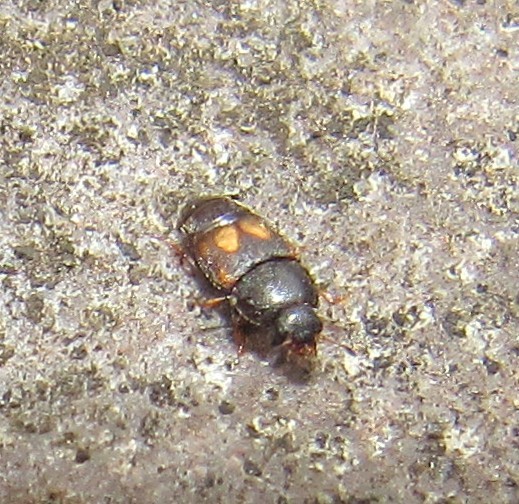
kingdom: Animalia
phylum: Arthropoda
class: Insecta
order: Coleoptera
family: Nitidulidae
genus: Carpophilus
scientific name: Carpophilus hemipterus
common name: Dried fruit beetle
